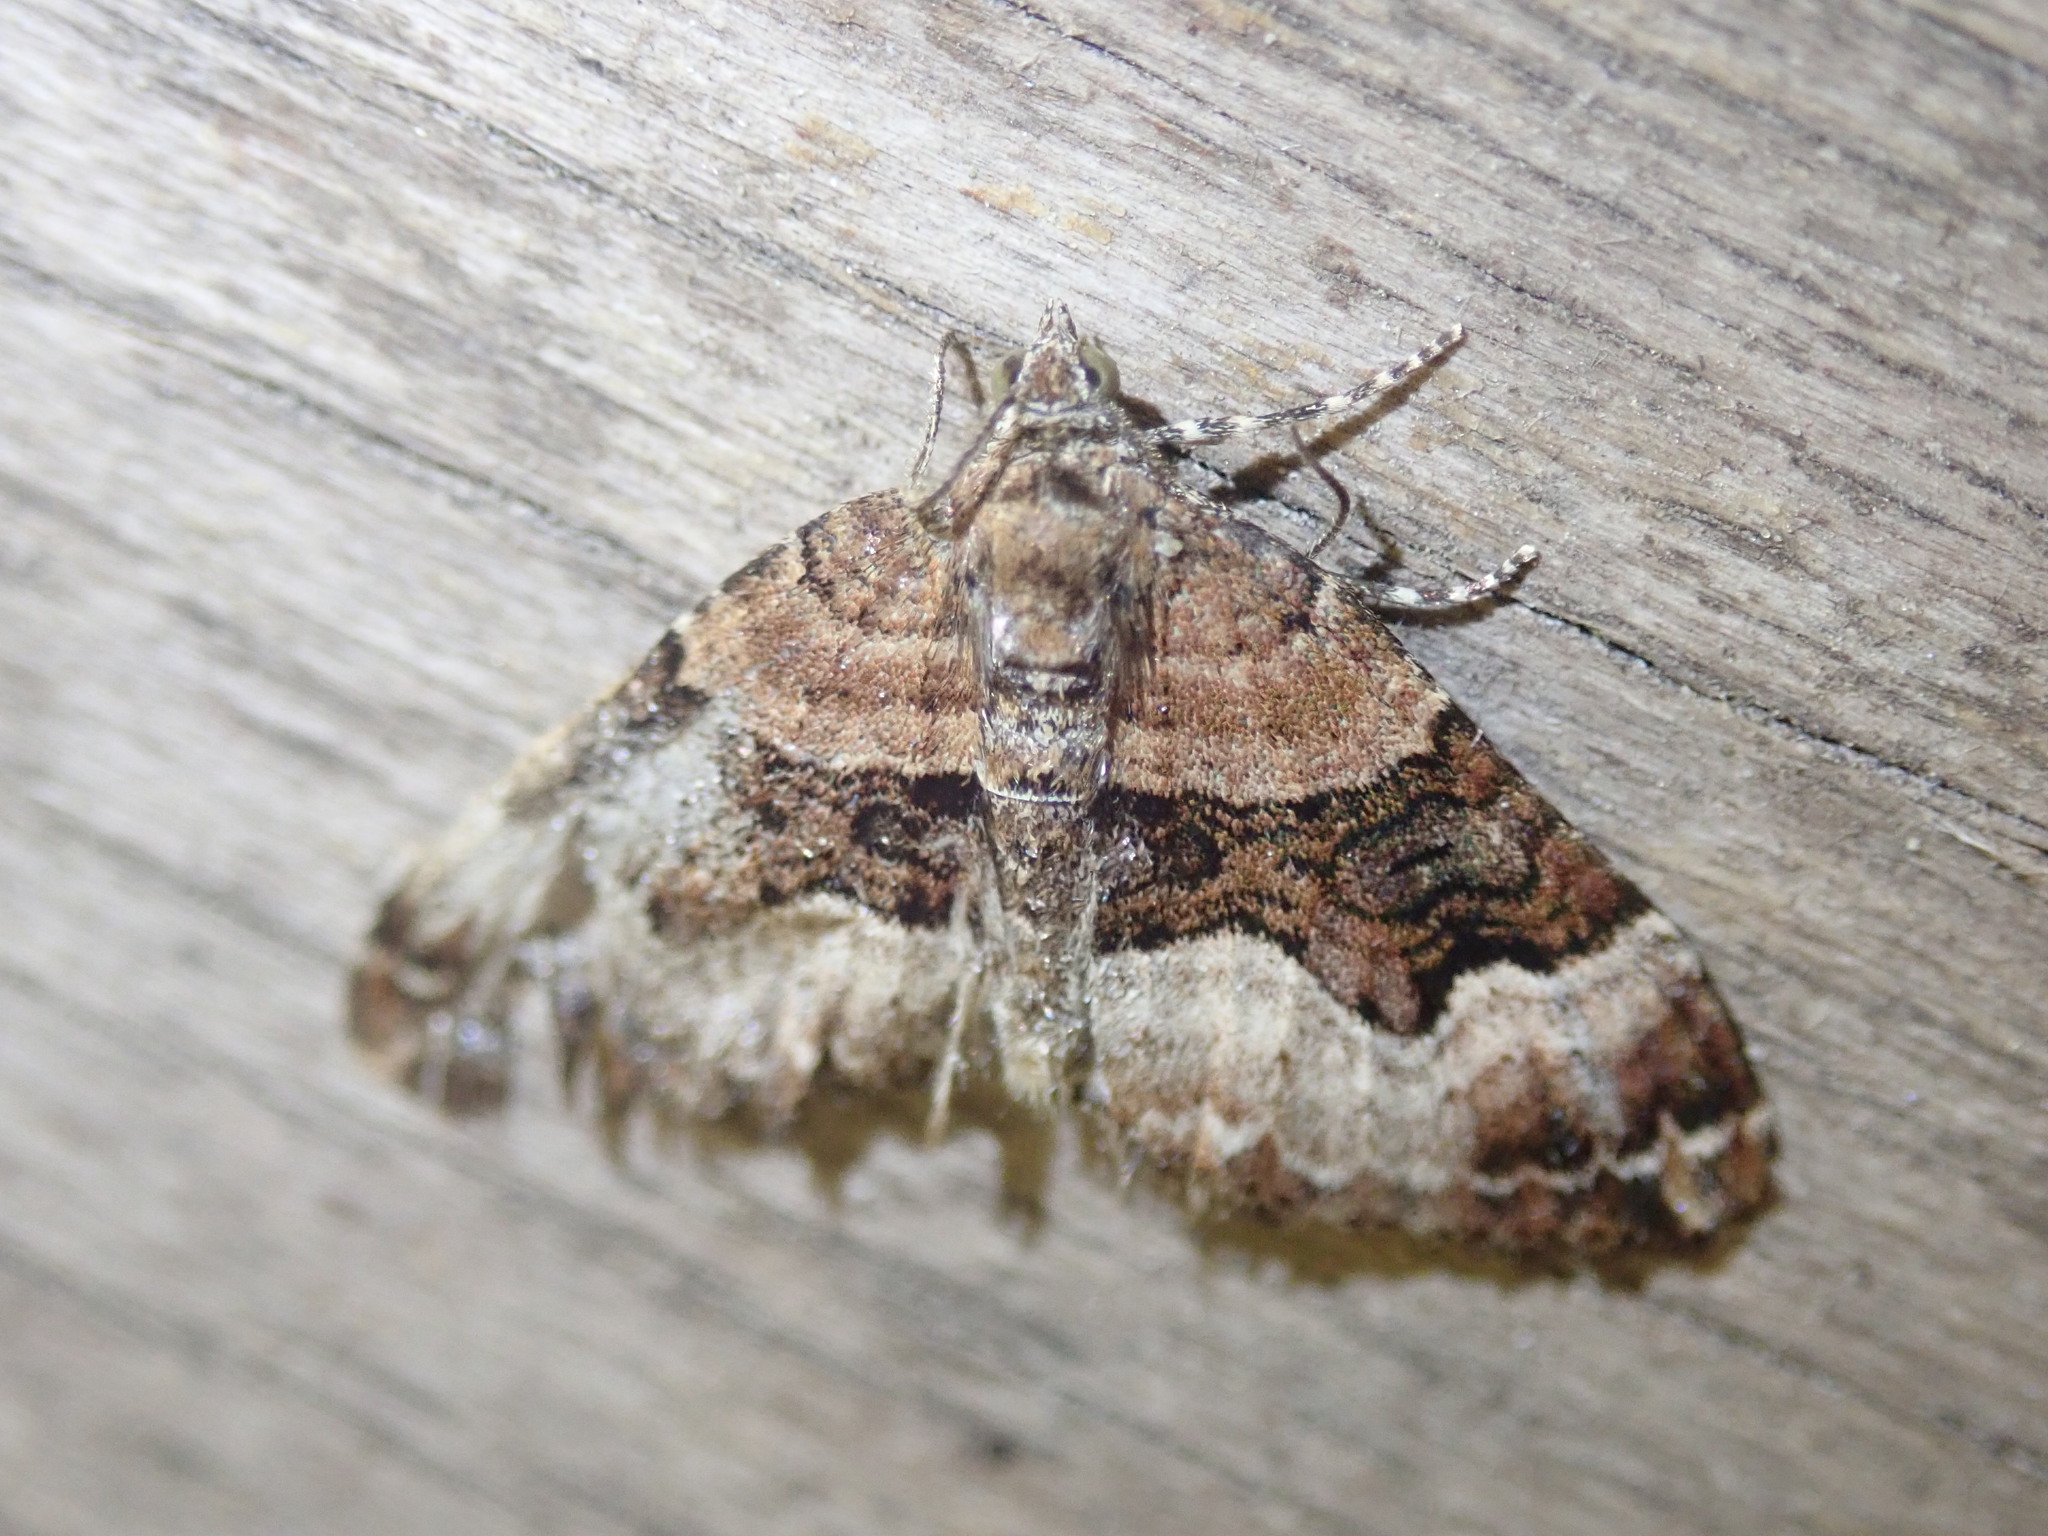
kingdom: Animalia
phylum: Arthropoda
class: Insecta
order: Lepidoptera
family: Geometridae
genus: Xanthorhoe
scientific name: Xanthorhoe biriviata
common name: Balsam carpet
